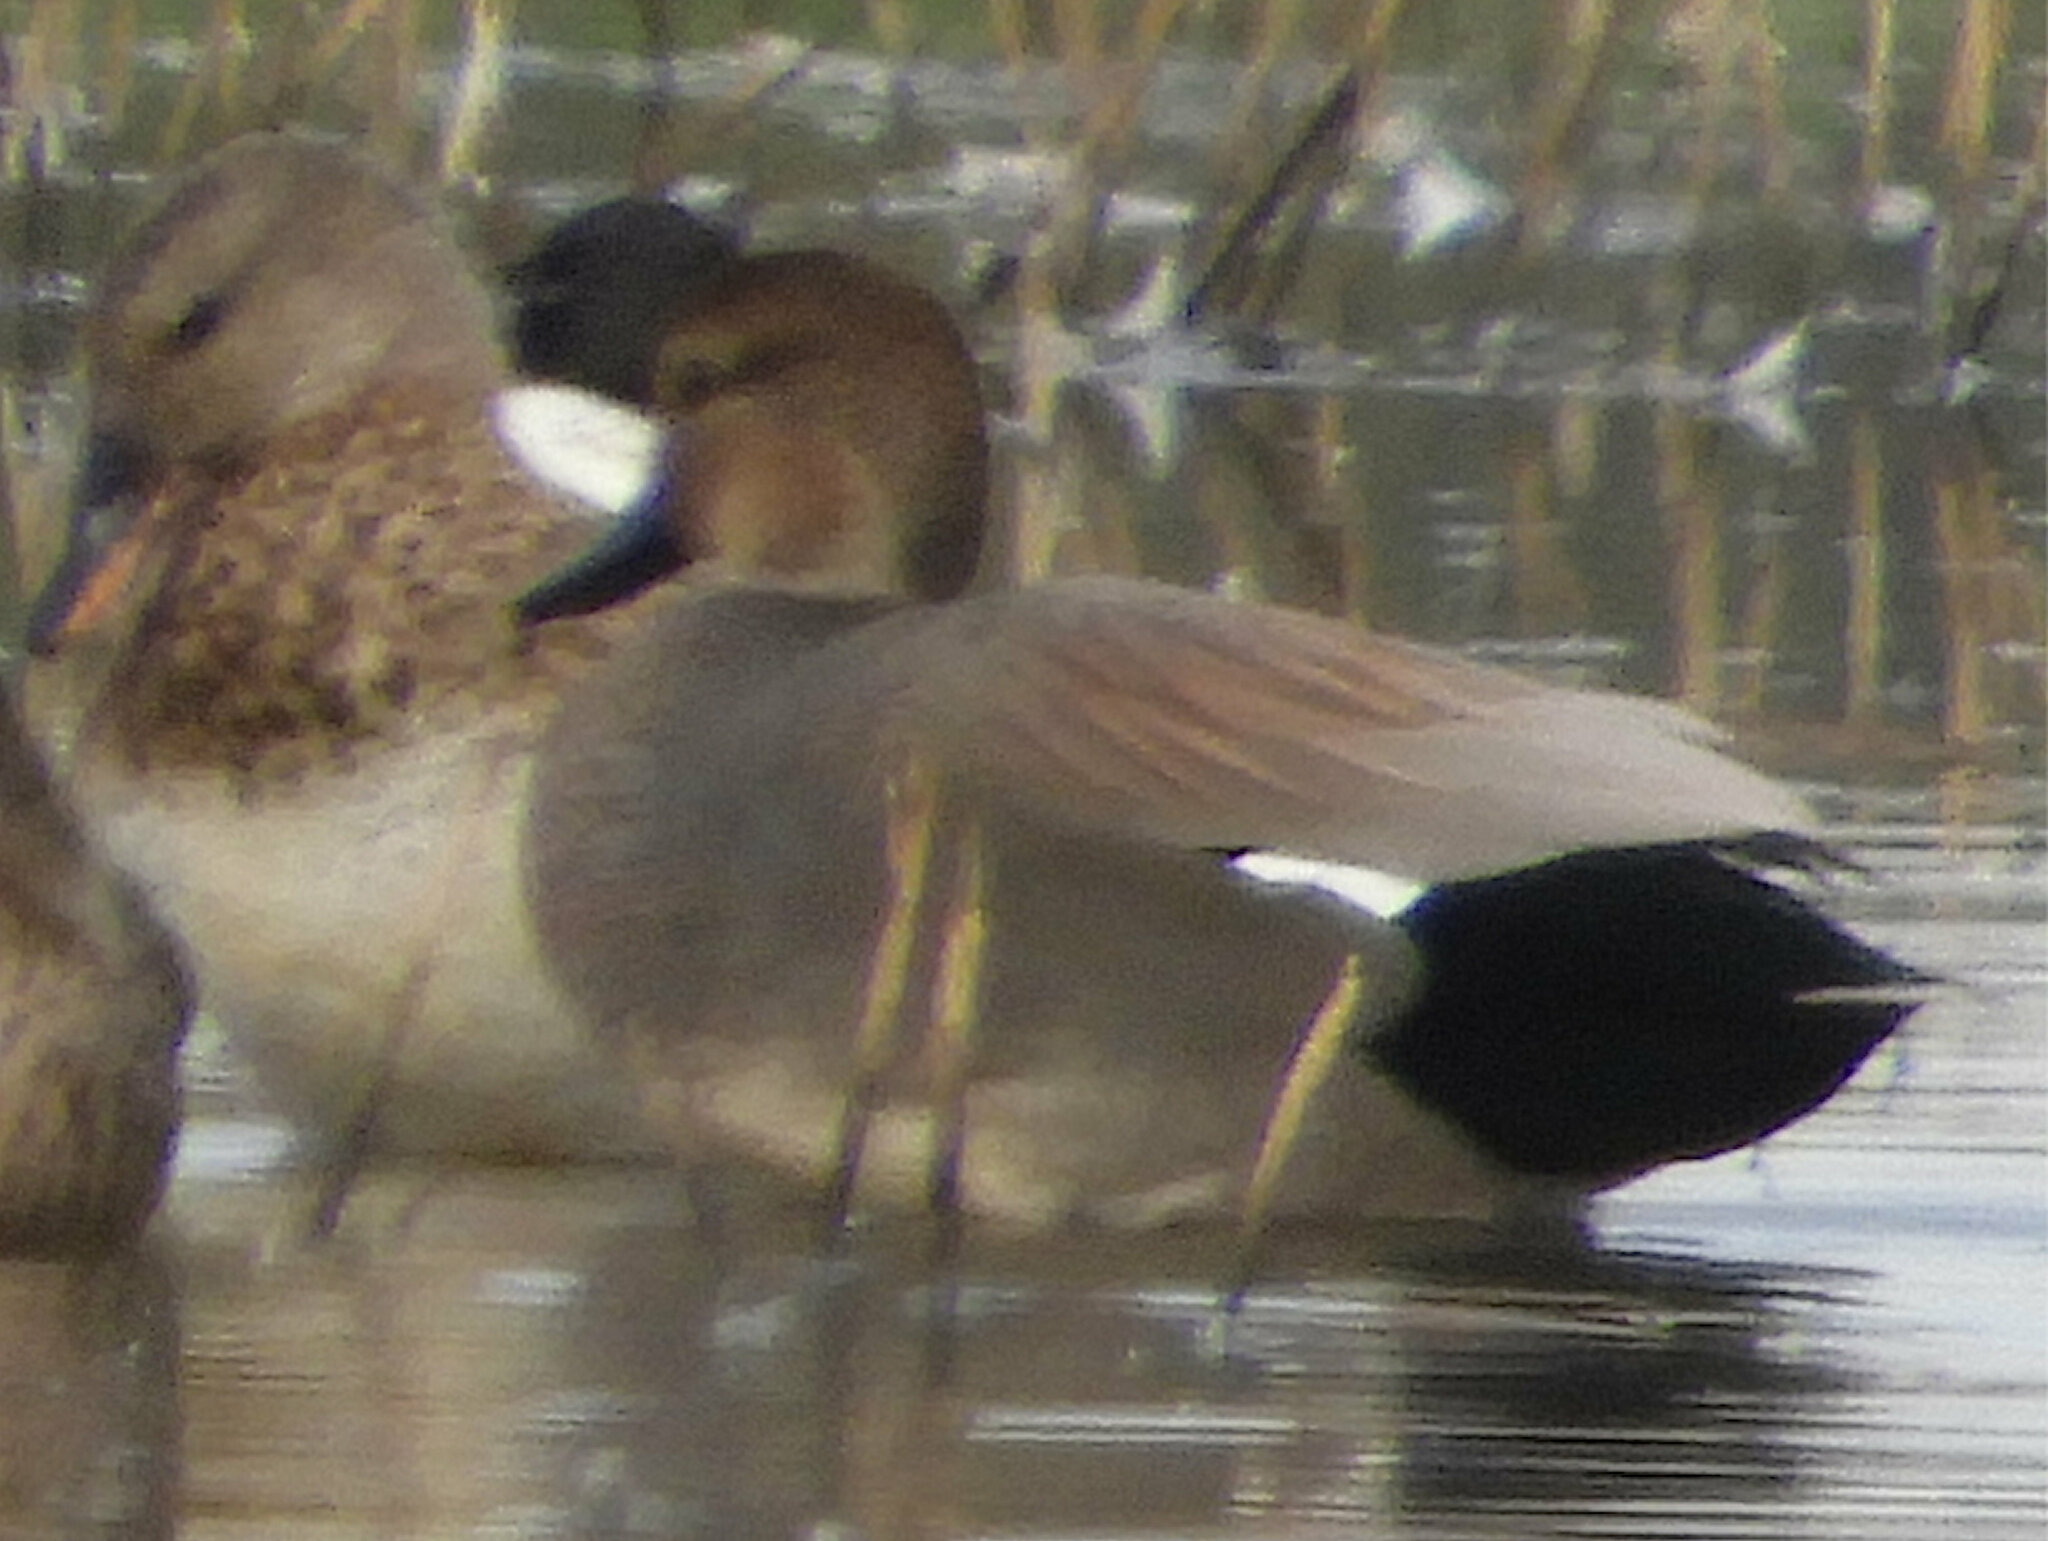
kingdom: Animalia
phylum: Chordata
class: Aves
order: Anseriformes
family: Anatidae
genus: Mareca
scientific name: Mareca strepera
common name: Gadwall
